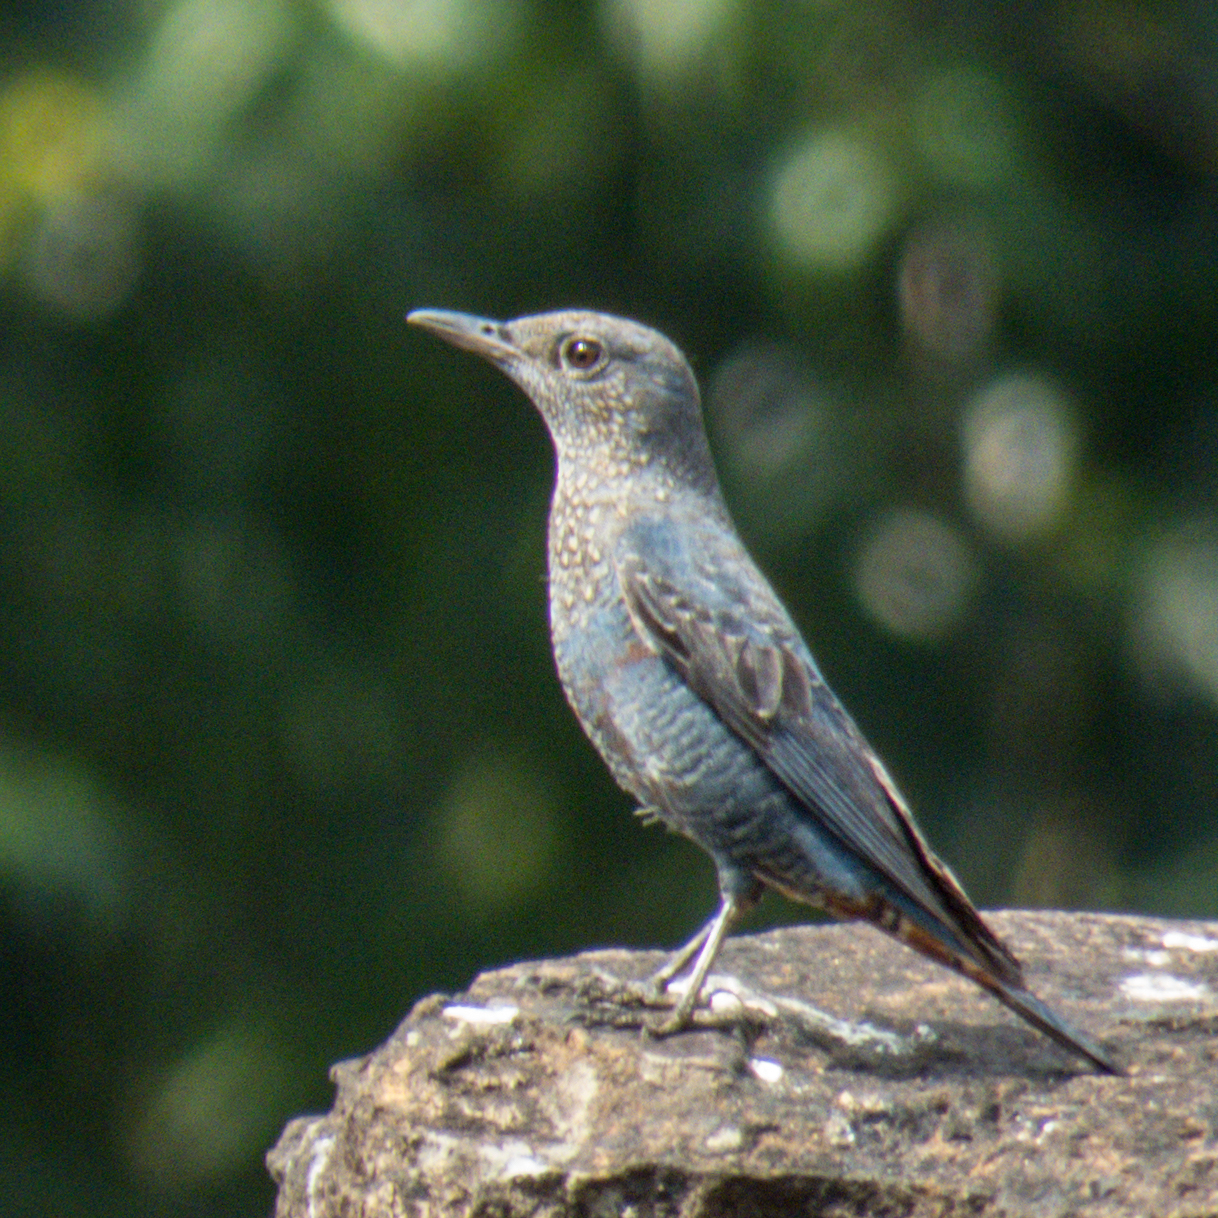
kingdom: Animalia
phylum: Chordata
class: Aves
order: Passeriformes
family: Muscicapidae
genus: Monticola
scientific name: Monticola solitarius
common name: Blue rock thrush
